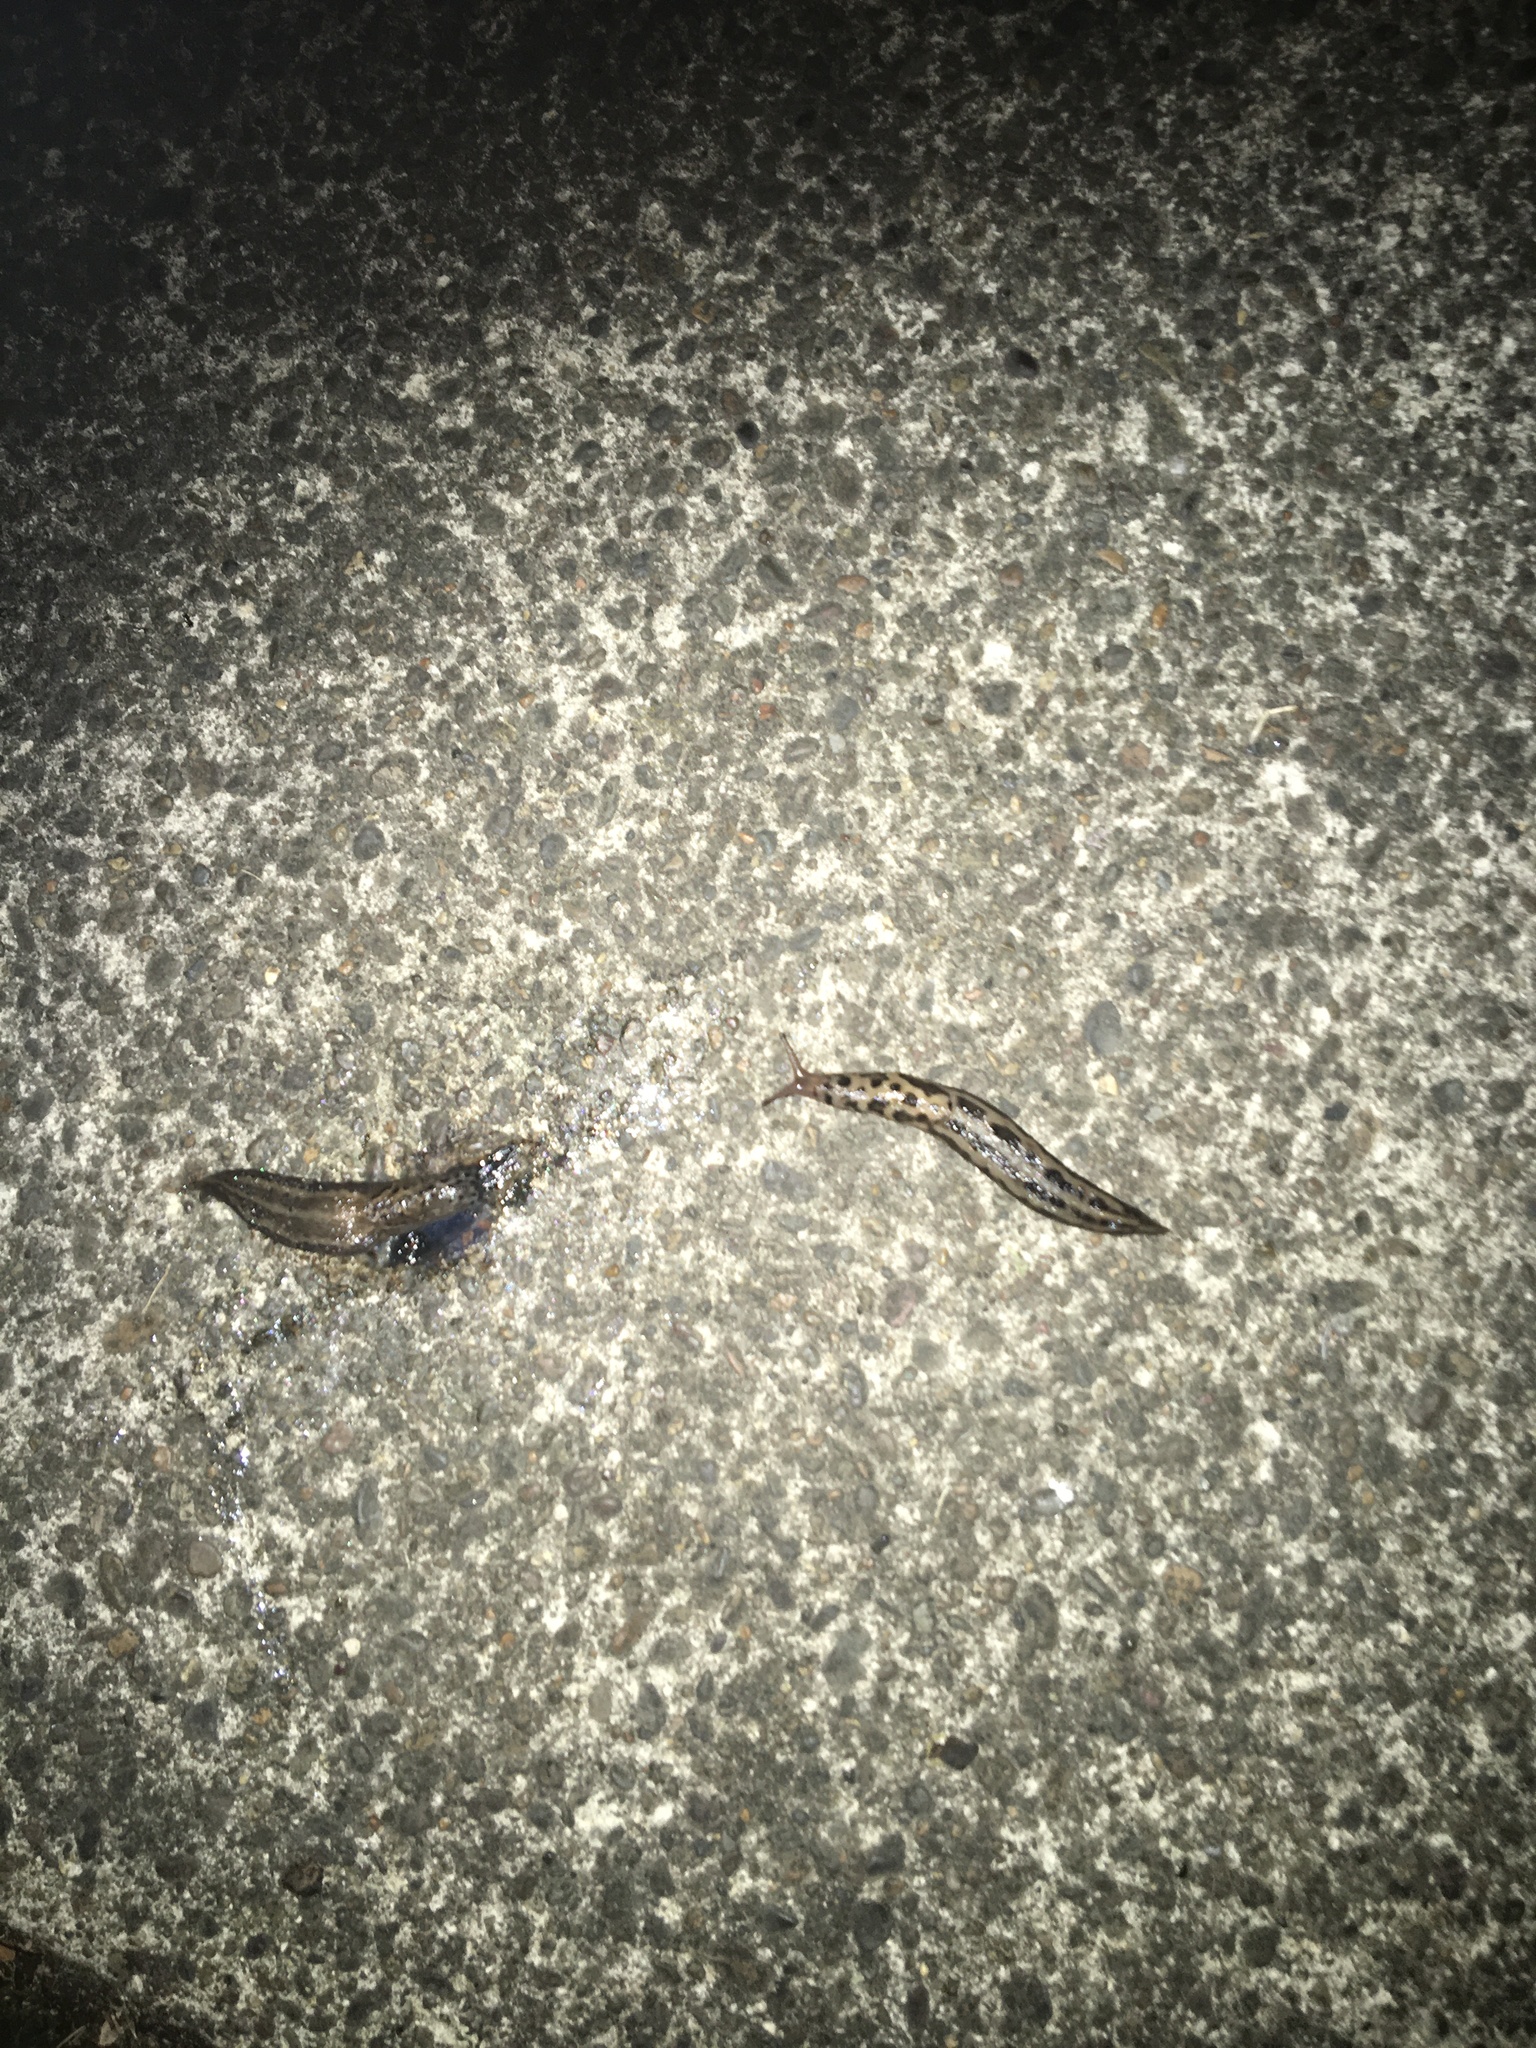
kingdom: Animalia
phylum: Mollusca
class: Gastropoda
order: Stylommatophora
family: Limacidae
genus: Limax
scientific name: Limax maximus
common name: Great grey slug
